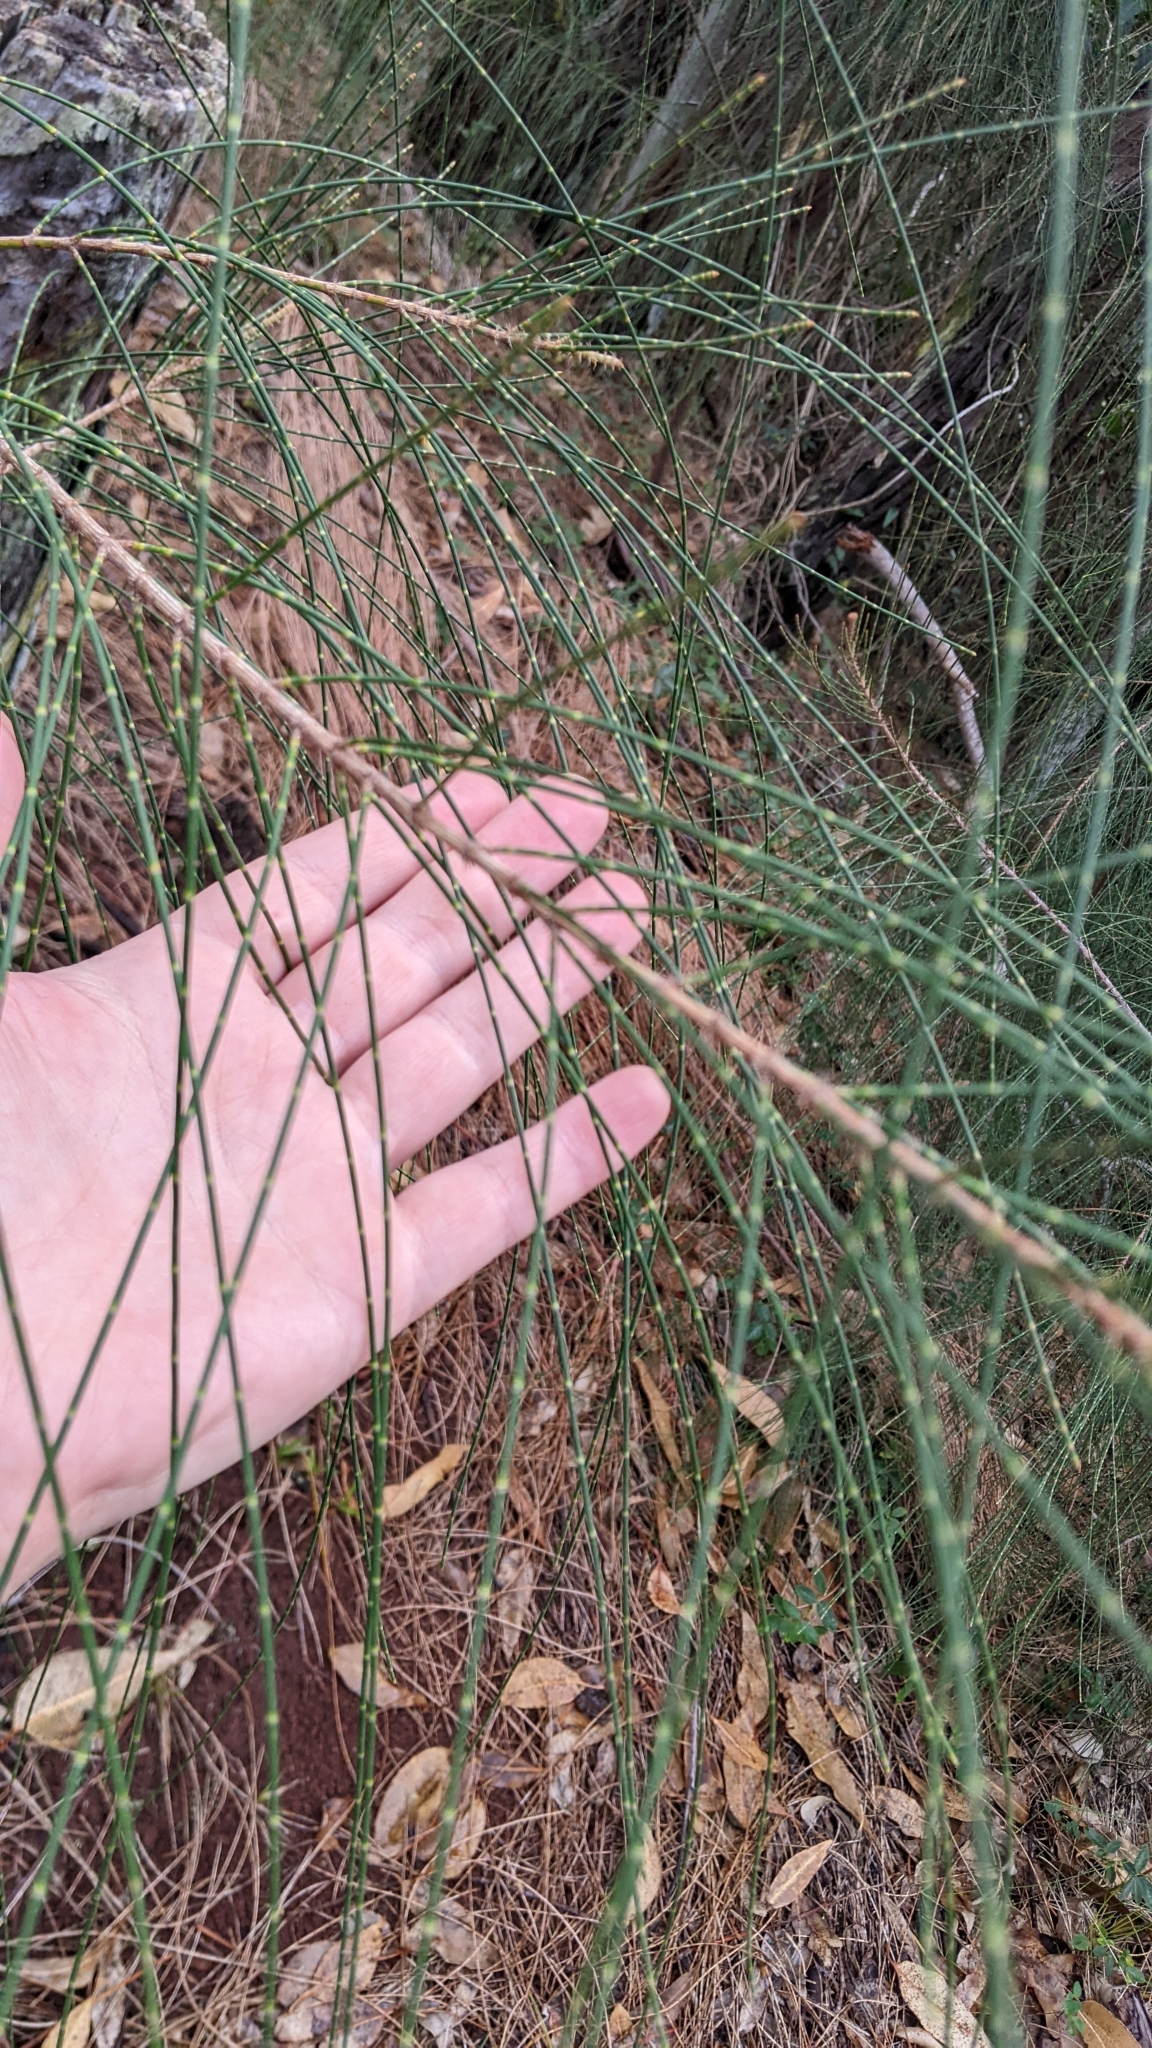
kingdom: Plantae
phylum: Tracheophyta
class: Magnoliopsida
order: Fagales
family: Casuarinaceae
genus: Casuarina
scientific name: Casuarina equisetifolia
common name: Beach sheoak
